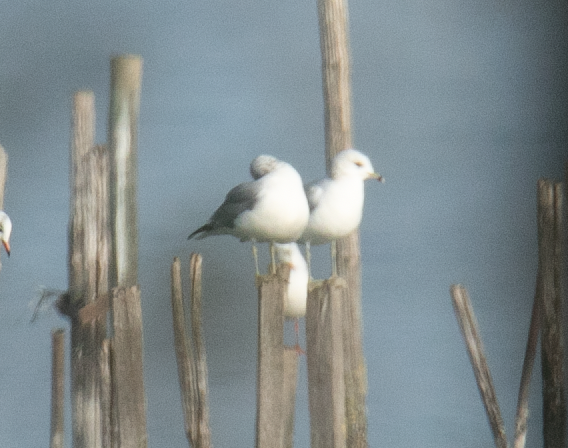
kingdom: Animalia
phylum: Chordata
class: Aves
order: Charadriiformes
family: Laridae
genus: Larus
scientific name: Larus canus
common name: Mew gull
